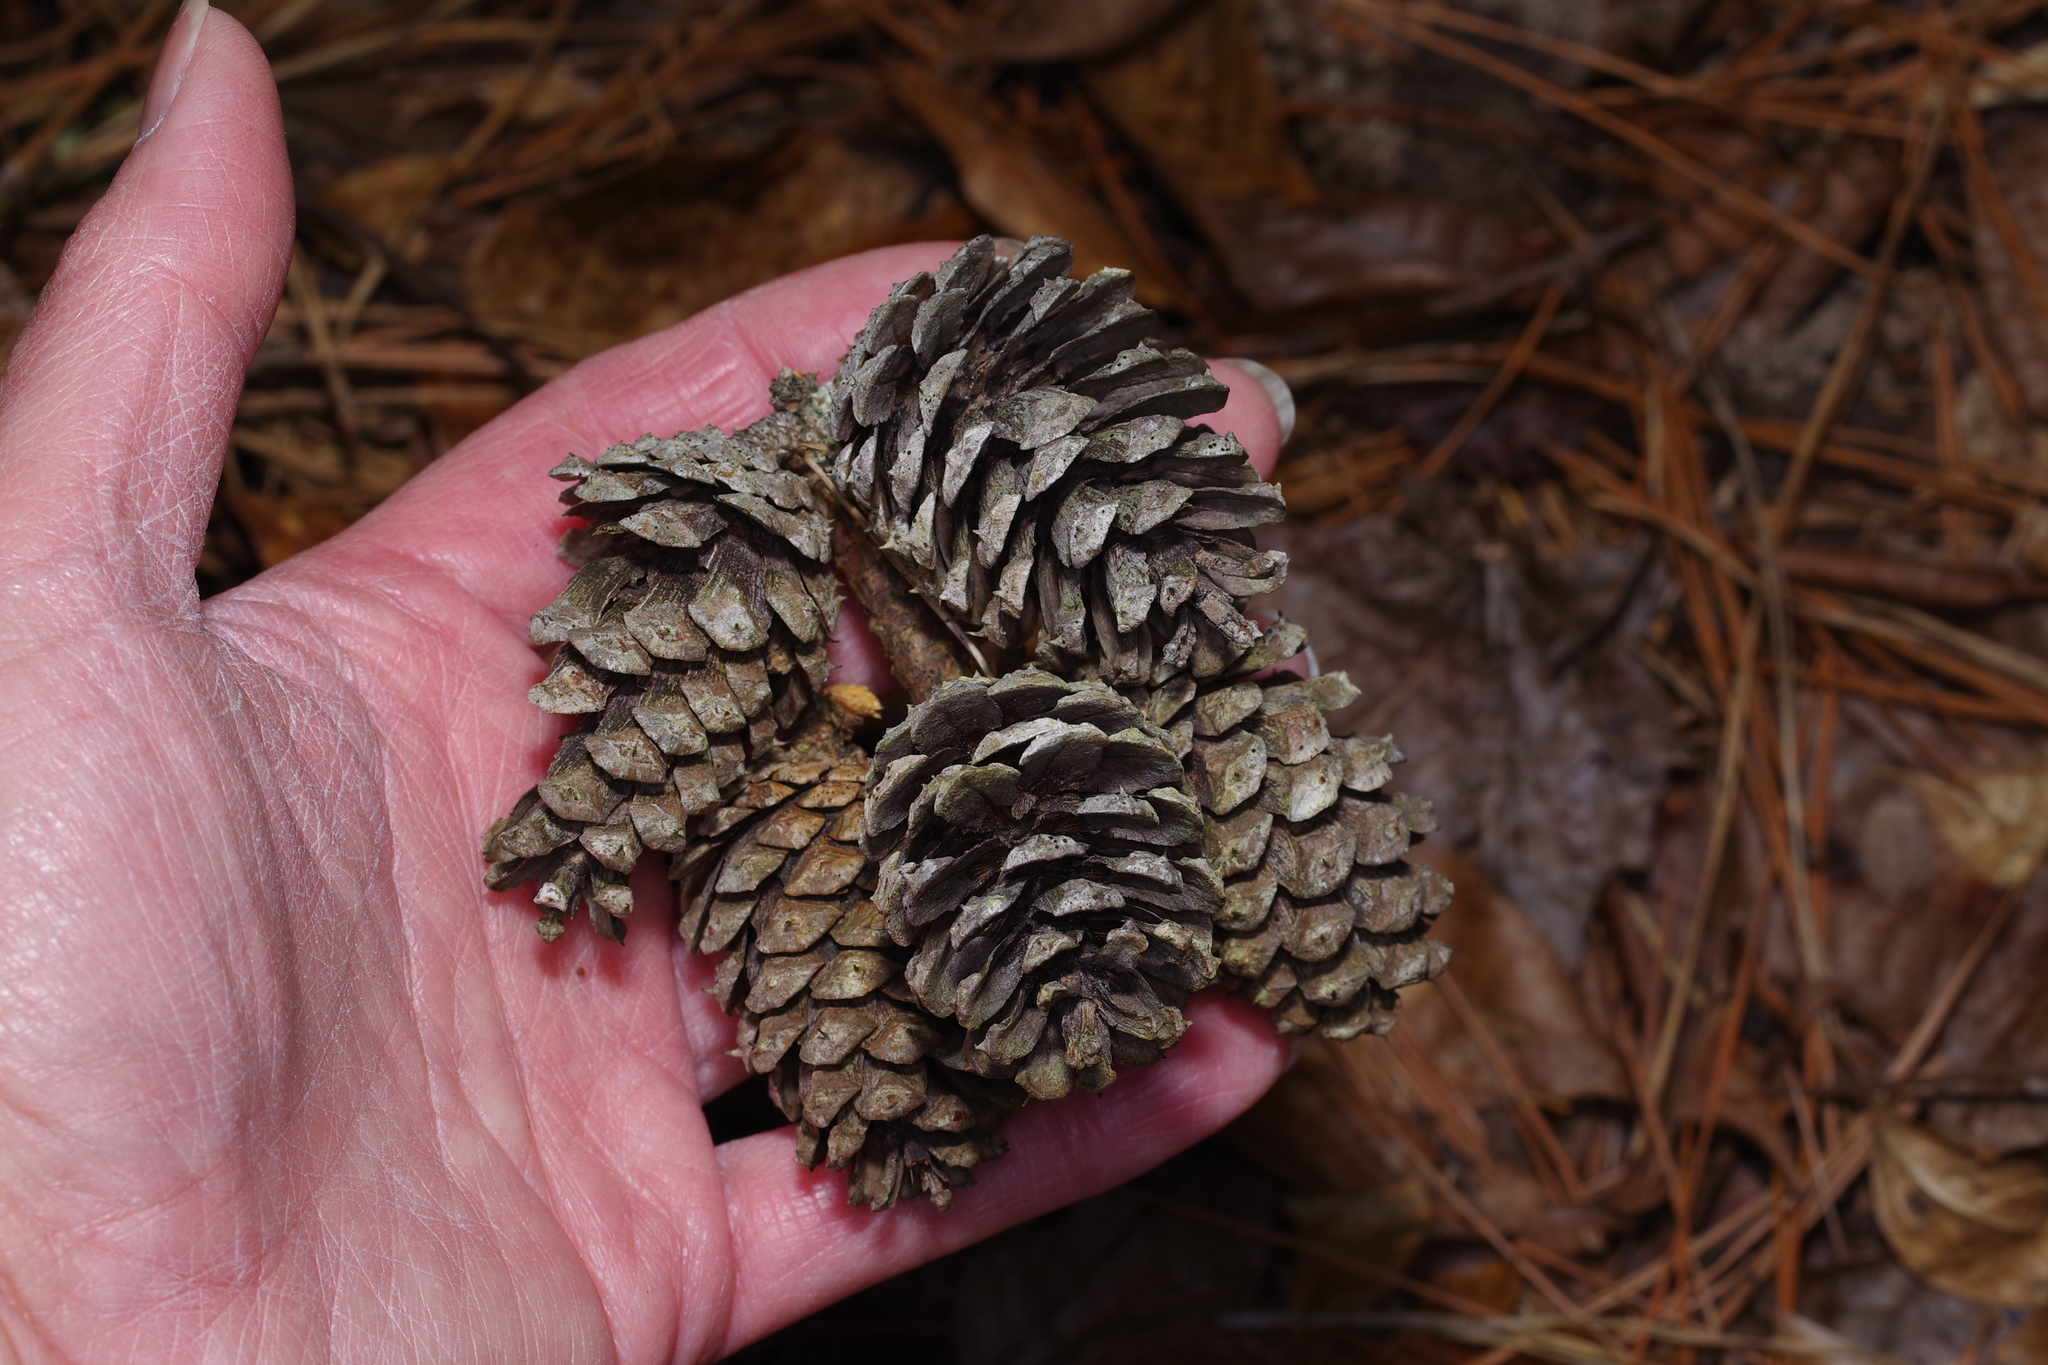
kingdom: Plantae
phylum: Tracheophyta
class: Pinopsida
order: Pinales
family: Pinaceae
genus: Pinus
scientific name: Pinus echinata
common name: Shortleaf pine
